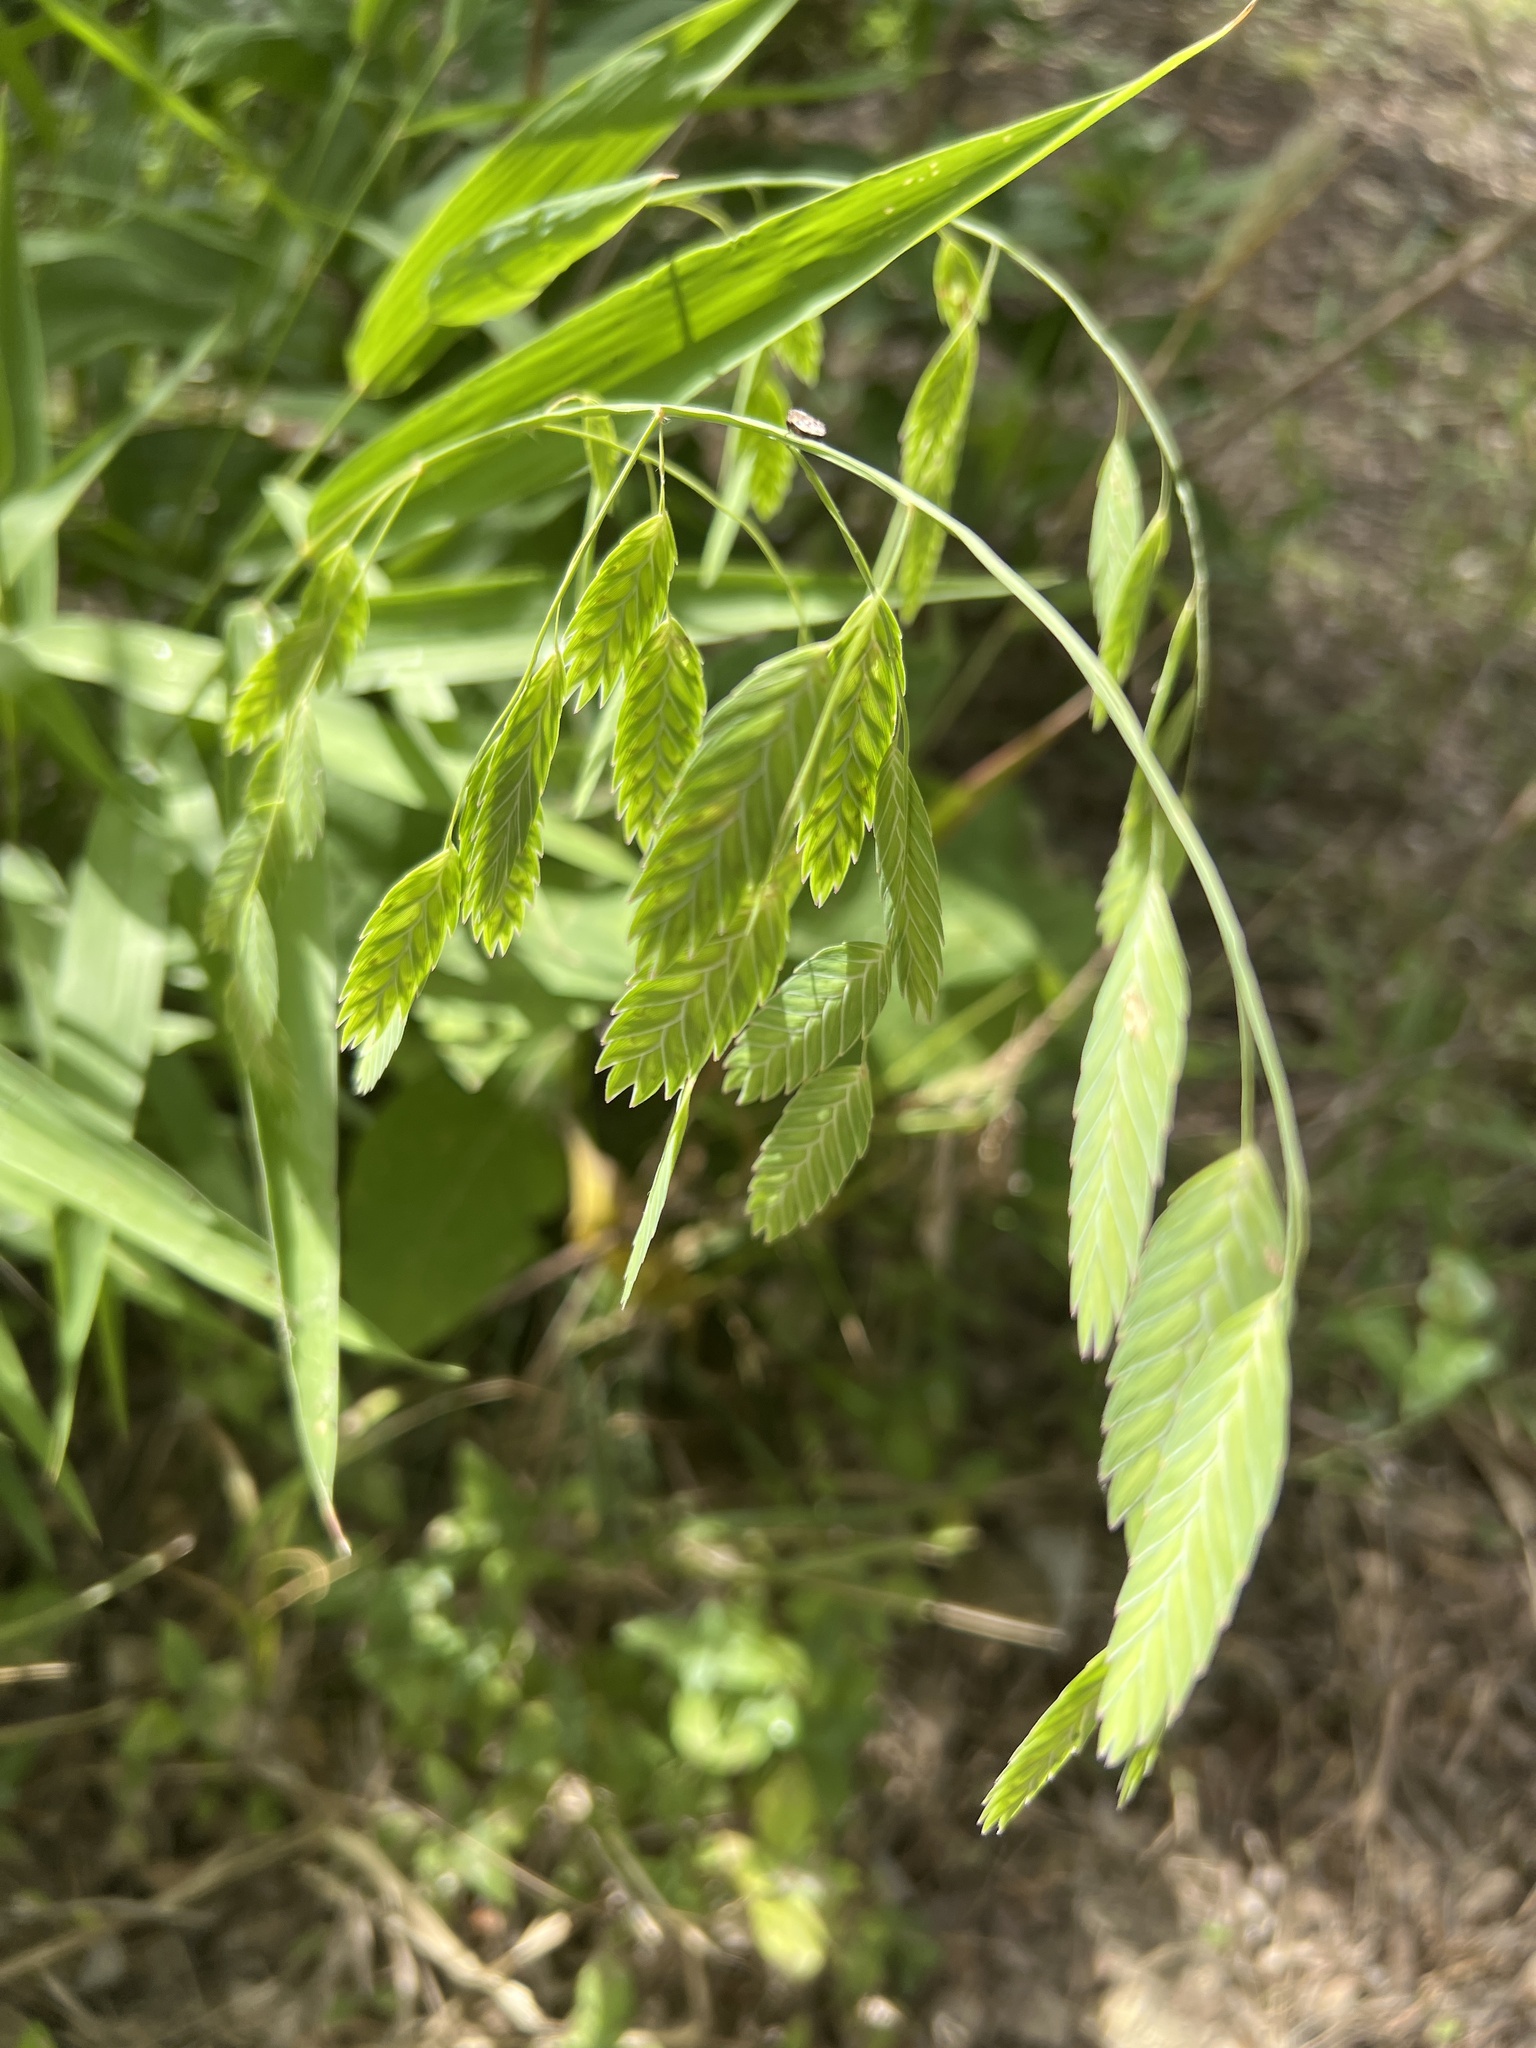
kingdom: Plantae
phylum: Tracheophyta
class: Liliopsida
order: Poales
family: Poaceae
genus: Chasmanthium
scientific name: Chasmanthium latifolium
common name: Broad-leaved chasmanthium
